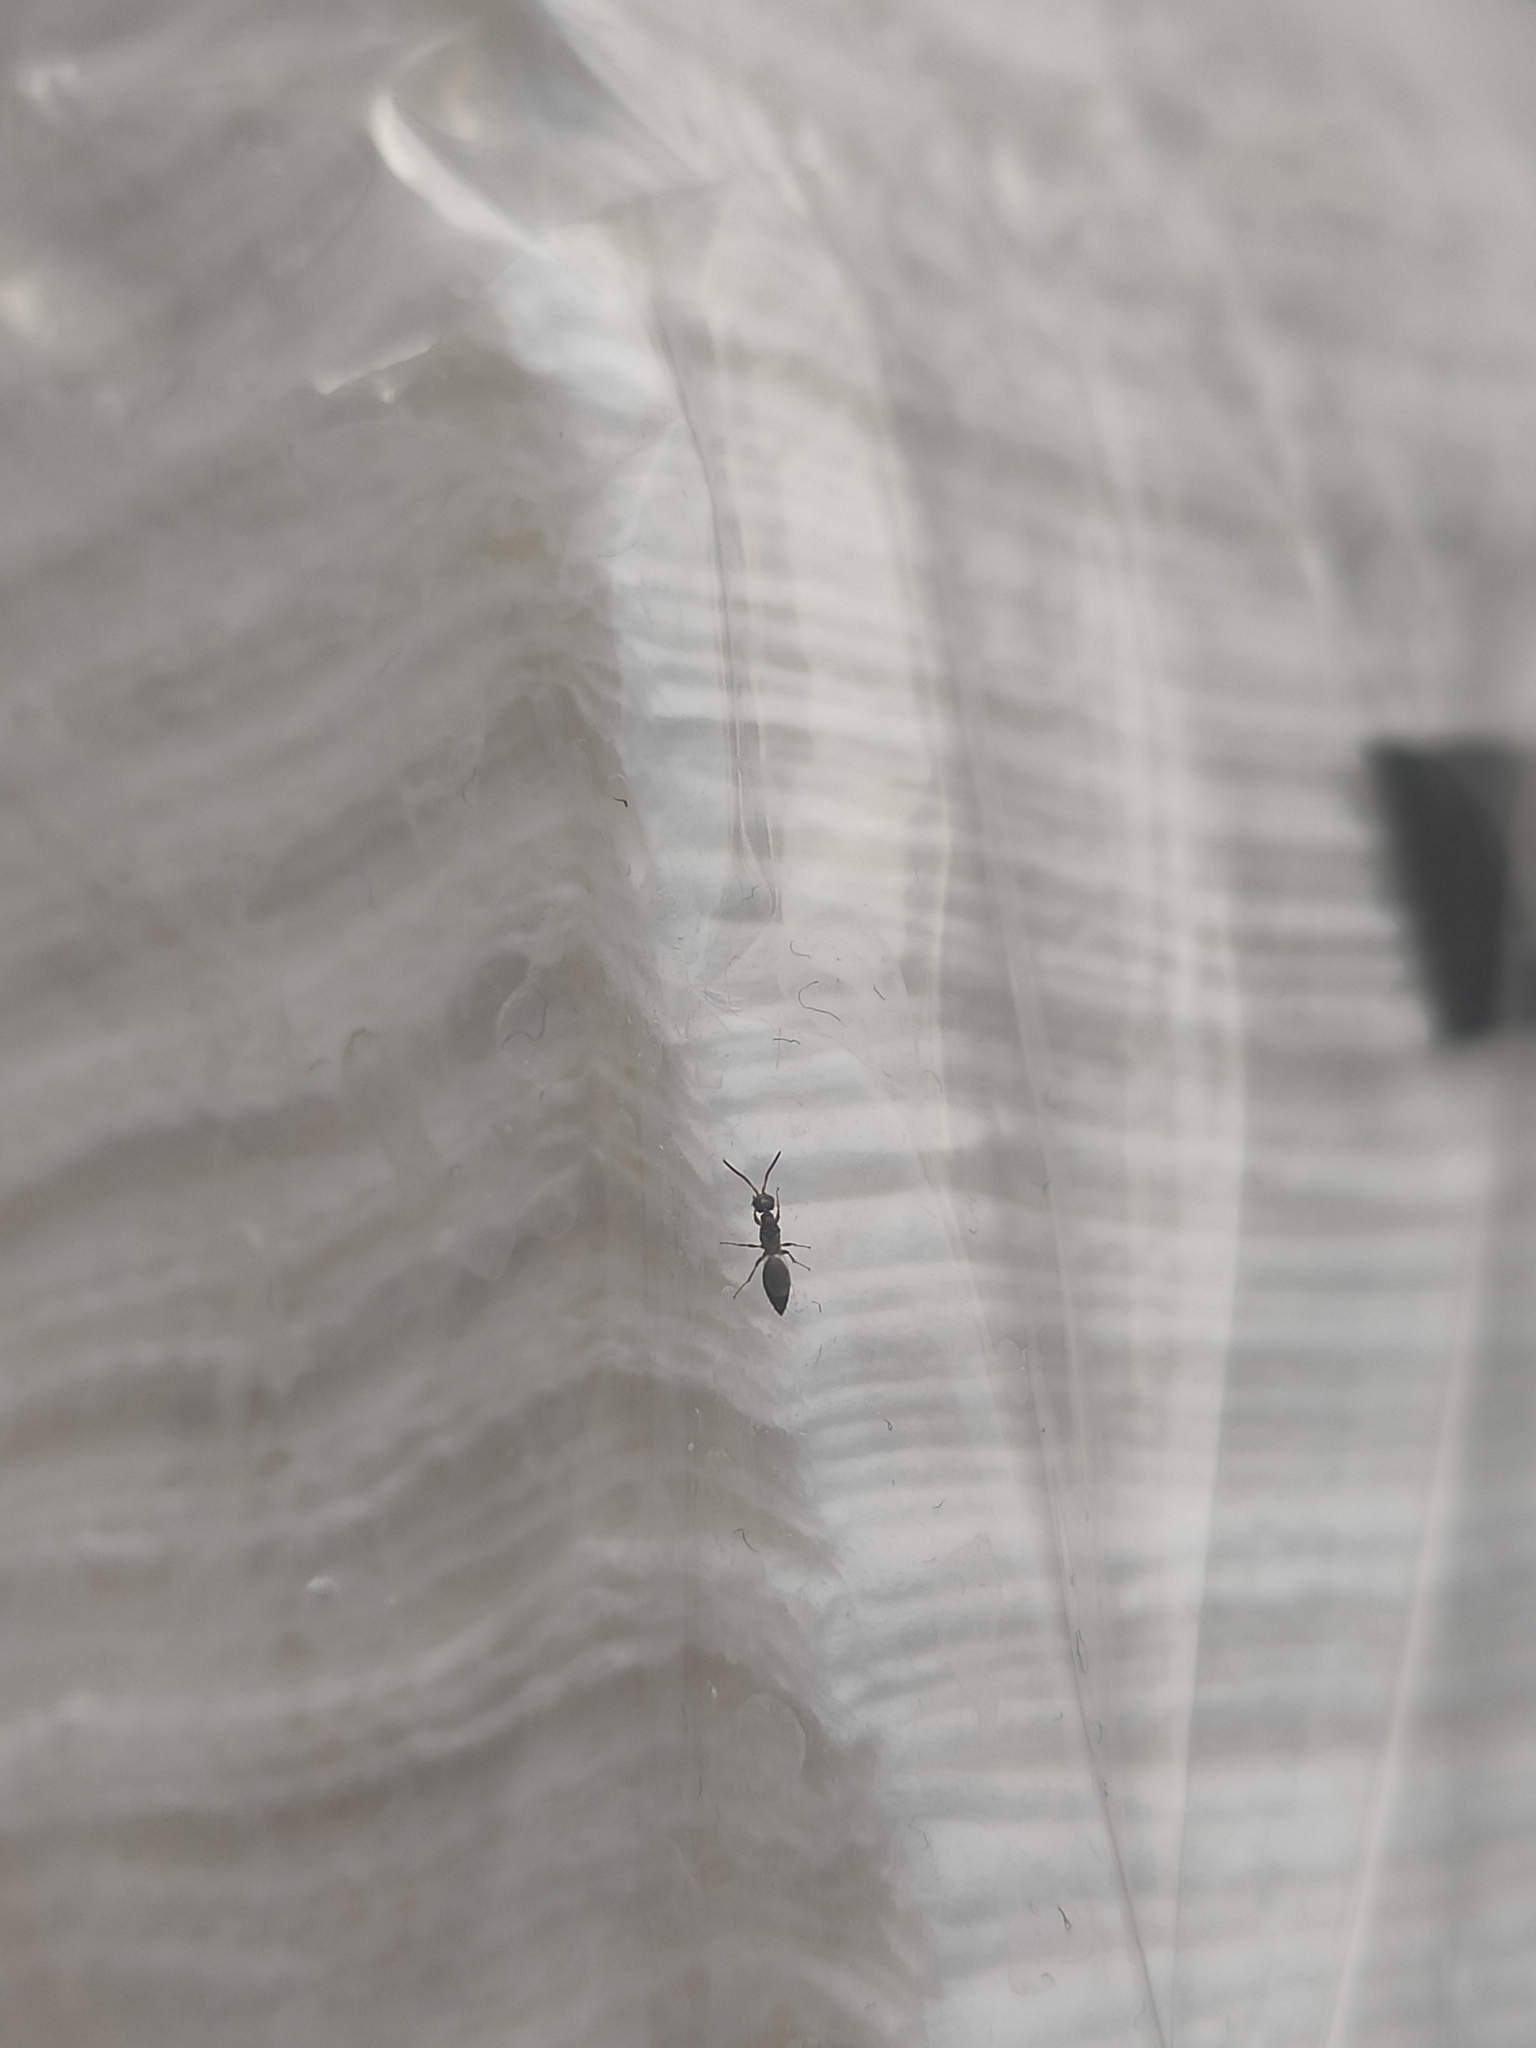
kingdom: Animalia
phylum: Arthropoda
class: Insecta
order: Hymenoptera
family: Bethylidae
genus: Laelius
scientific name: Laelius pedatus
